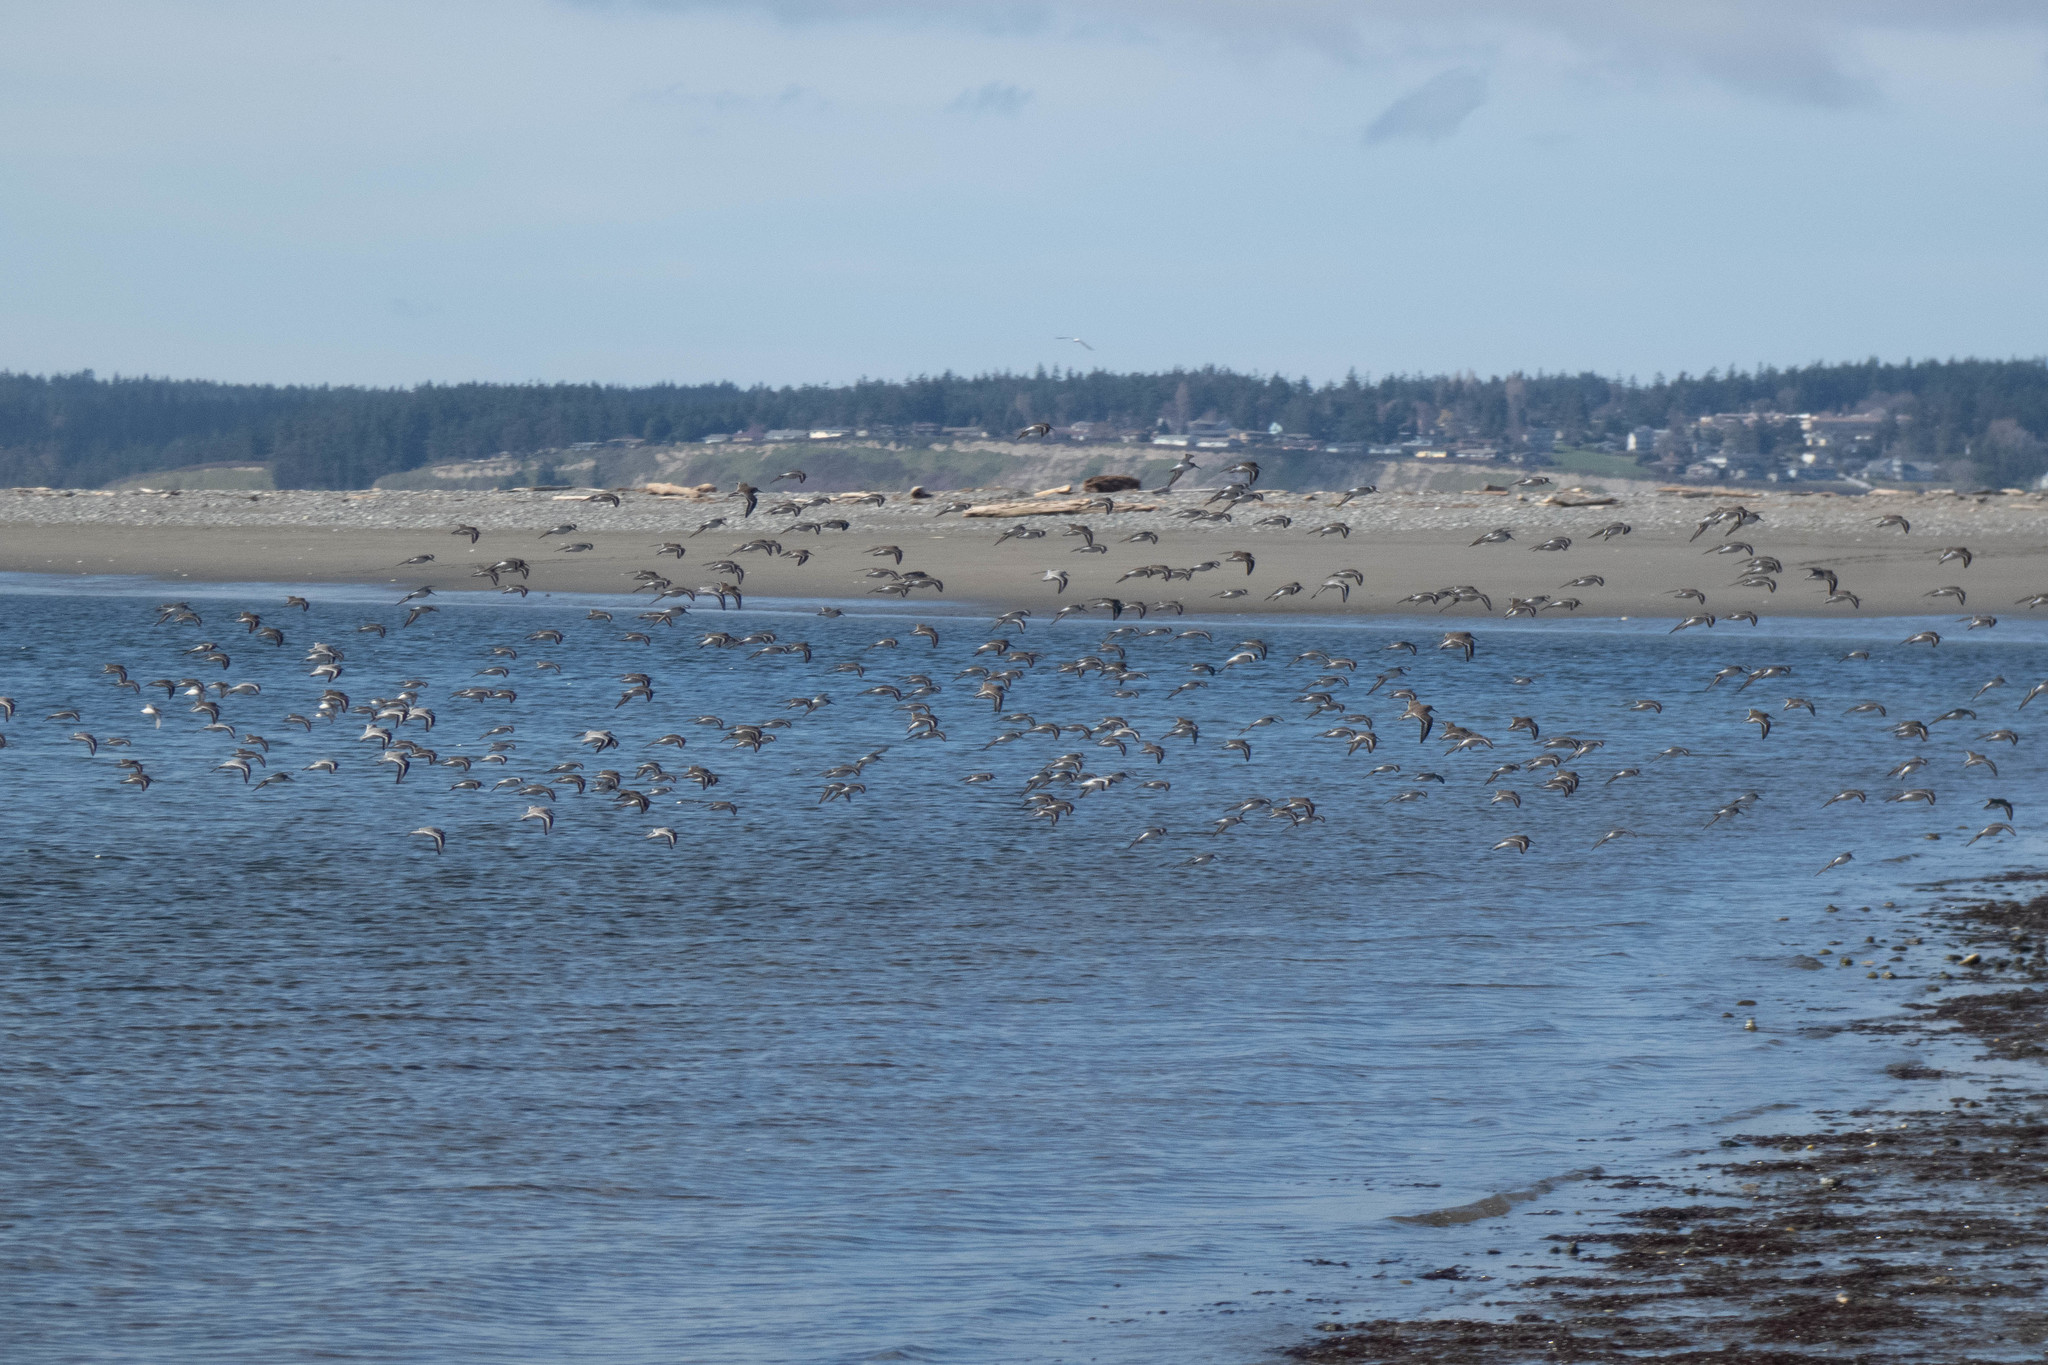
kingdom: Animalia
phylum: Chordata
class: Aves
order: Charadriiformes
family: Scolopacidae
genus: Calidris
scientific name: Calidris alpina
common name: Dunlin
